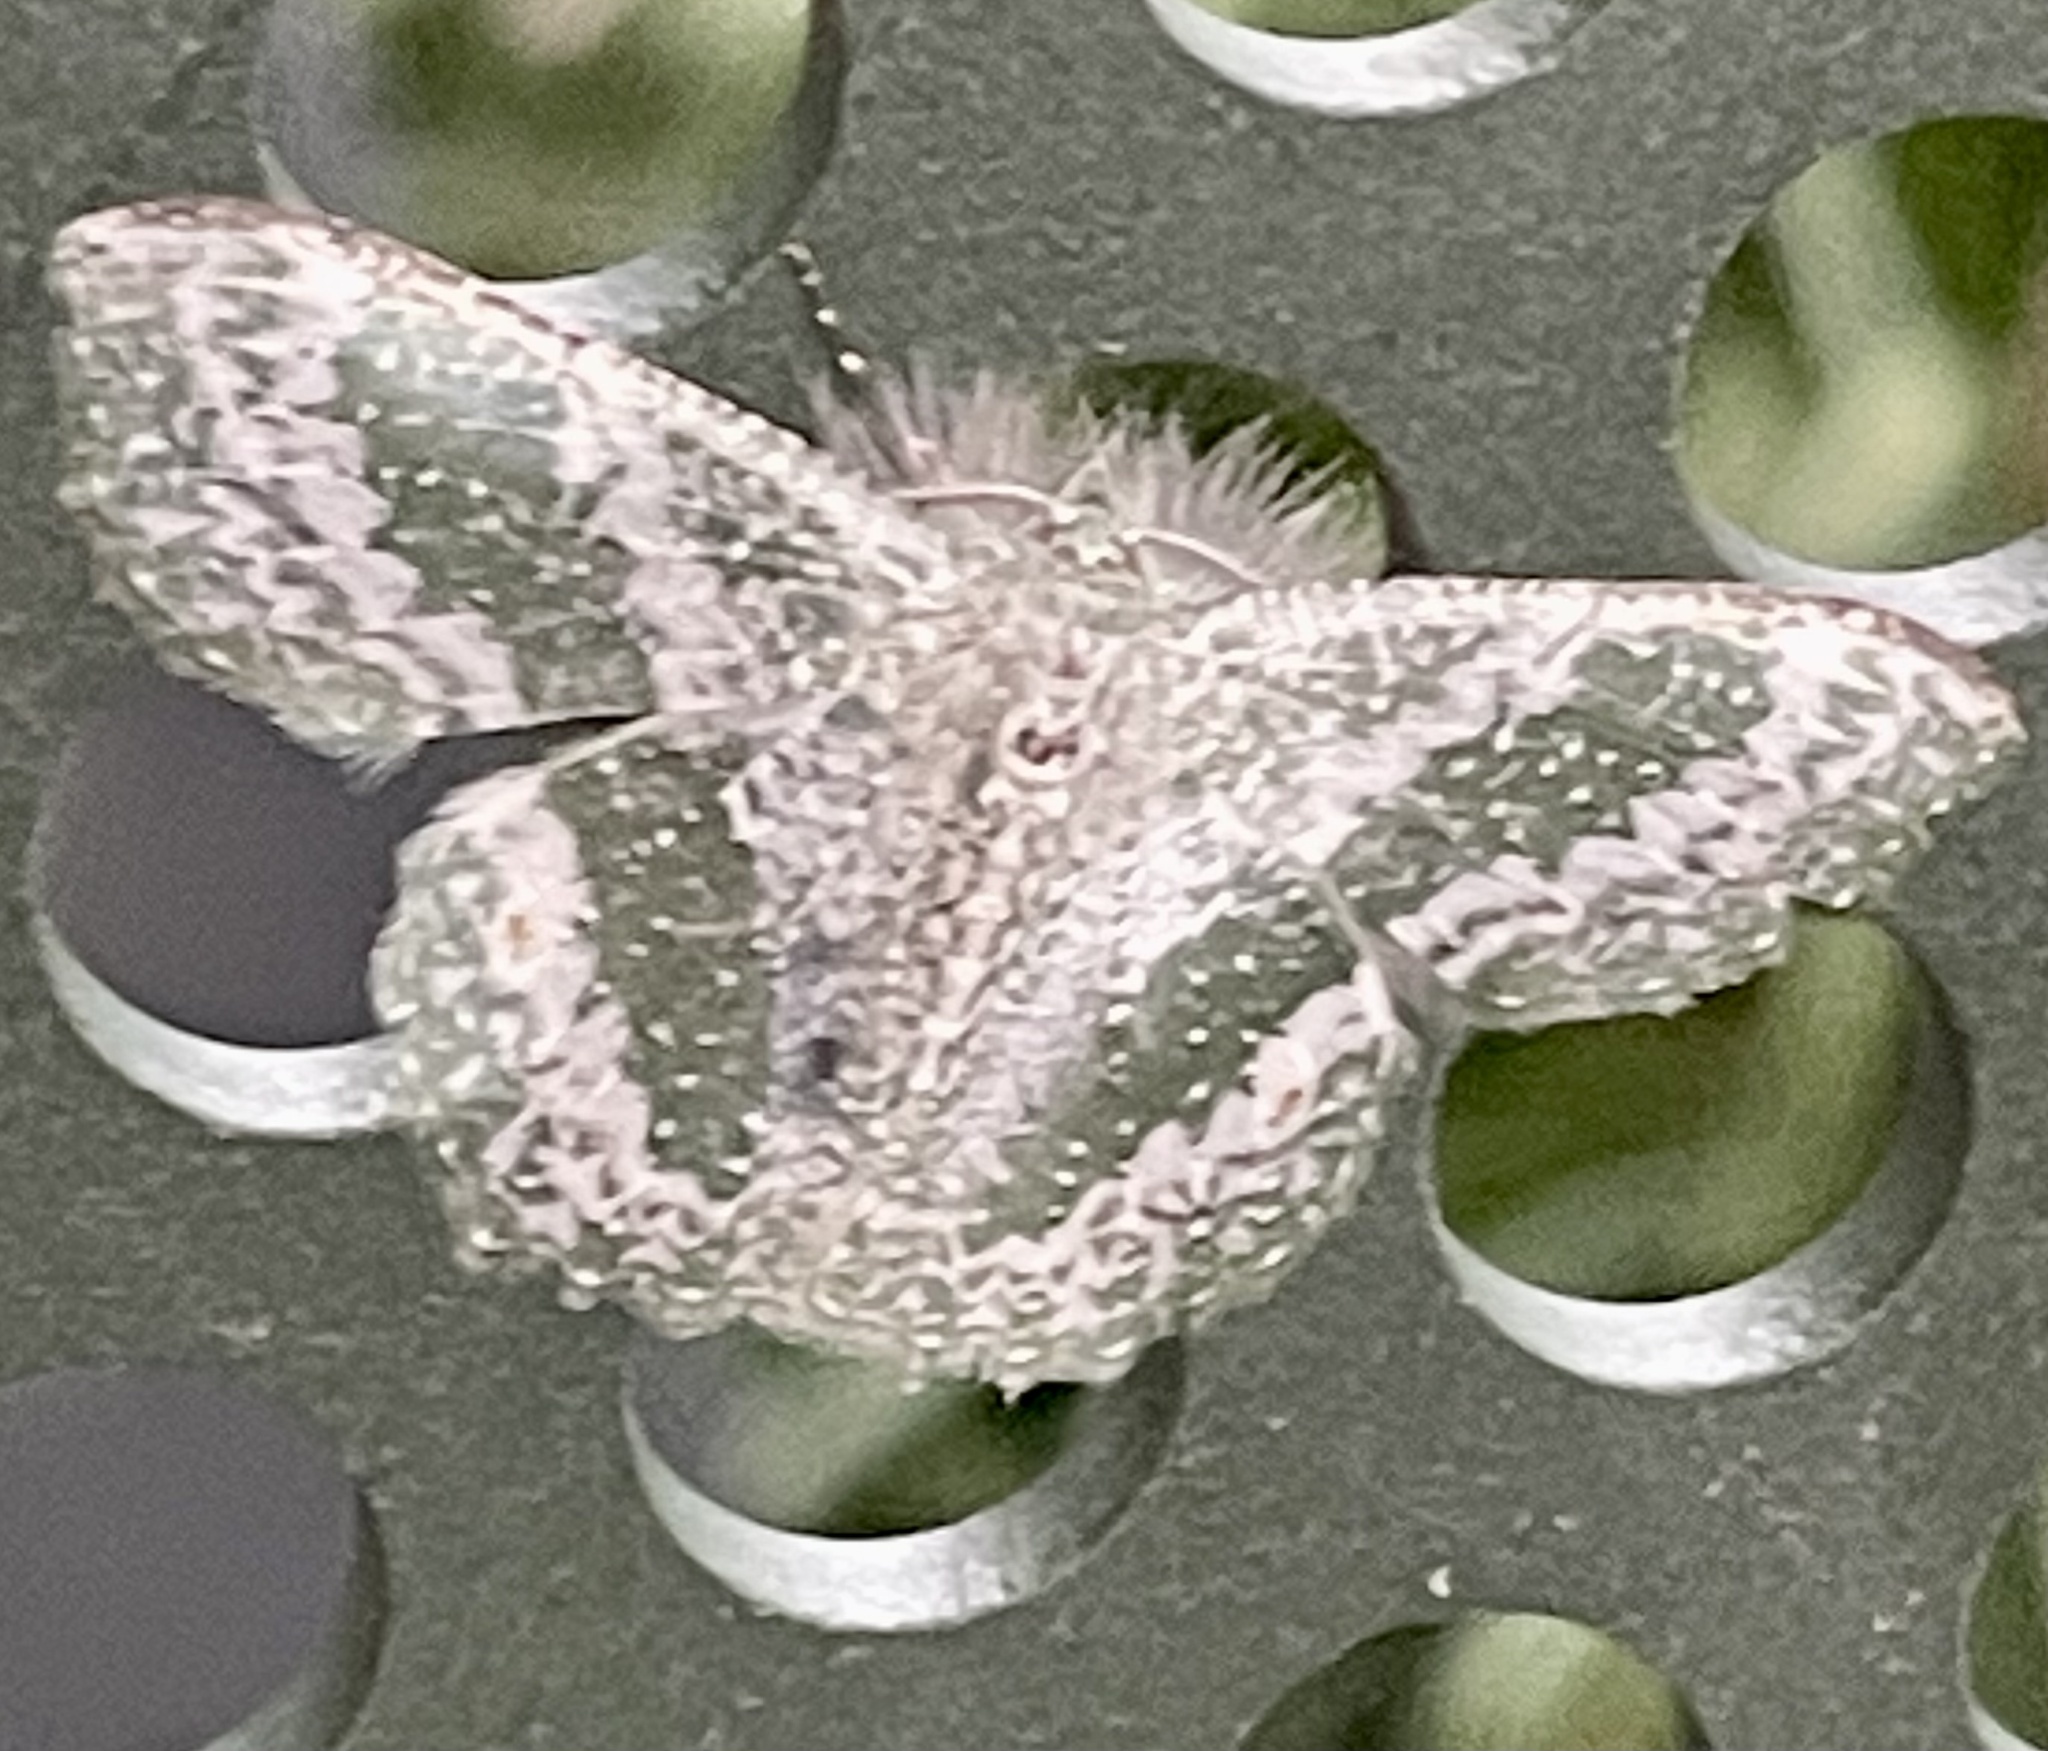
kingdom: Animalia
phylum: Arthropoda
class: Insecta
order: Lepidoptera
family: Geometridae
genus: Eucyclodes
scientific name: Eucyclodes pieroides
